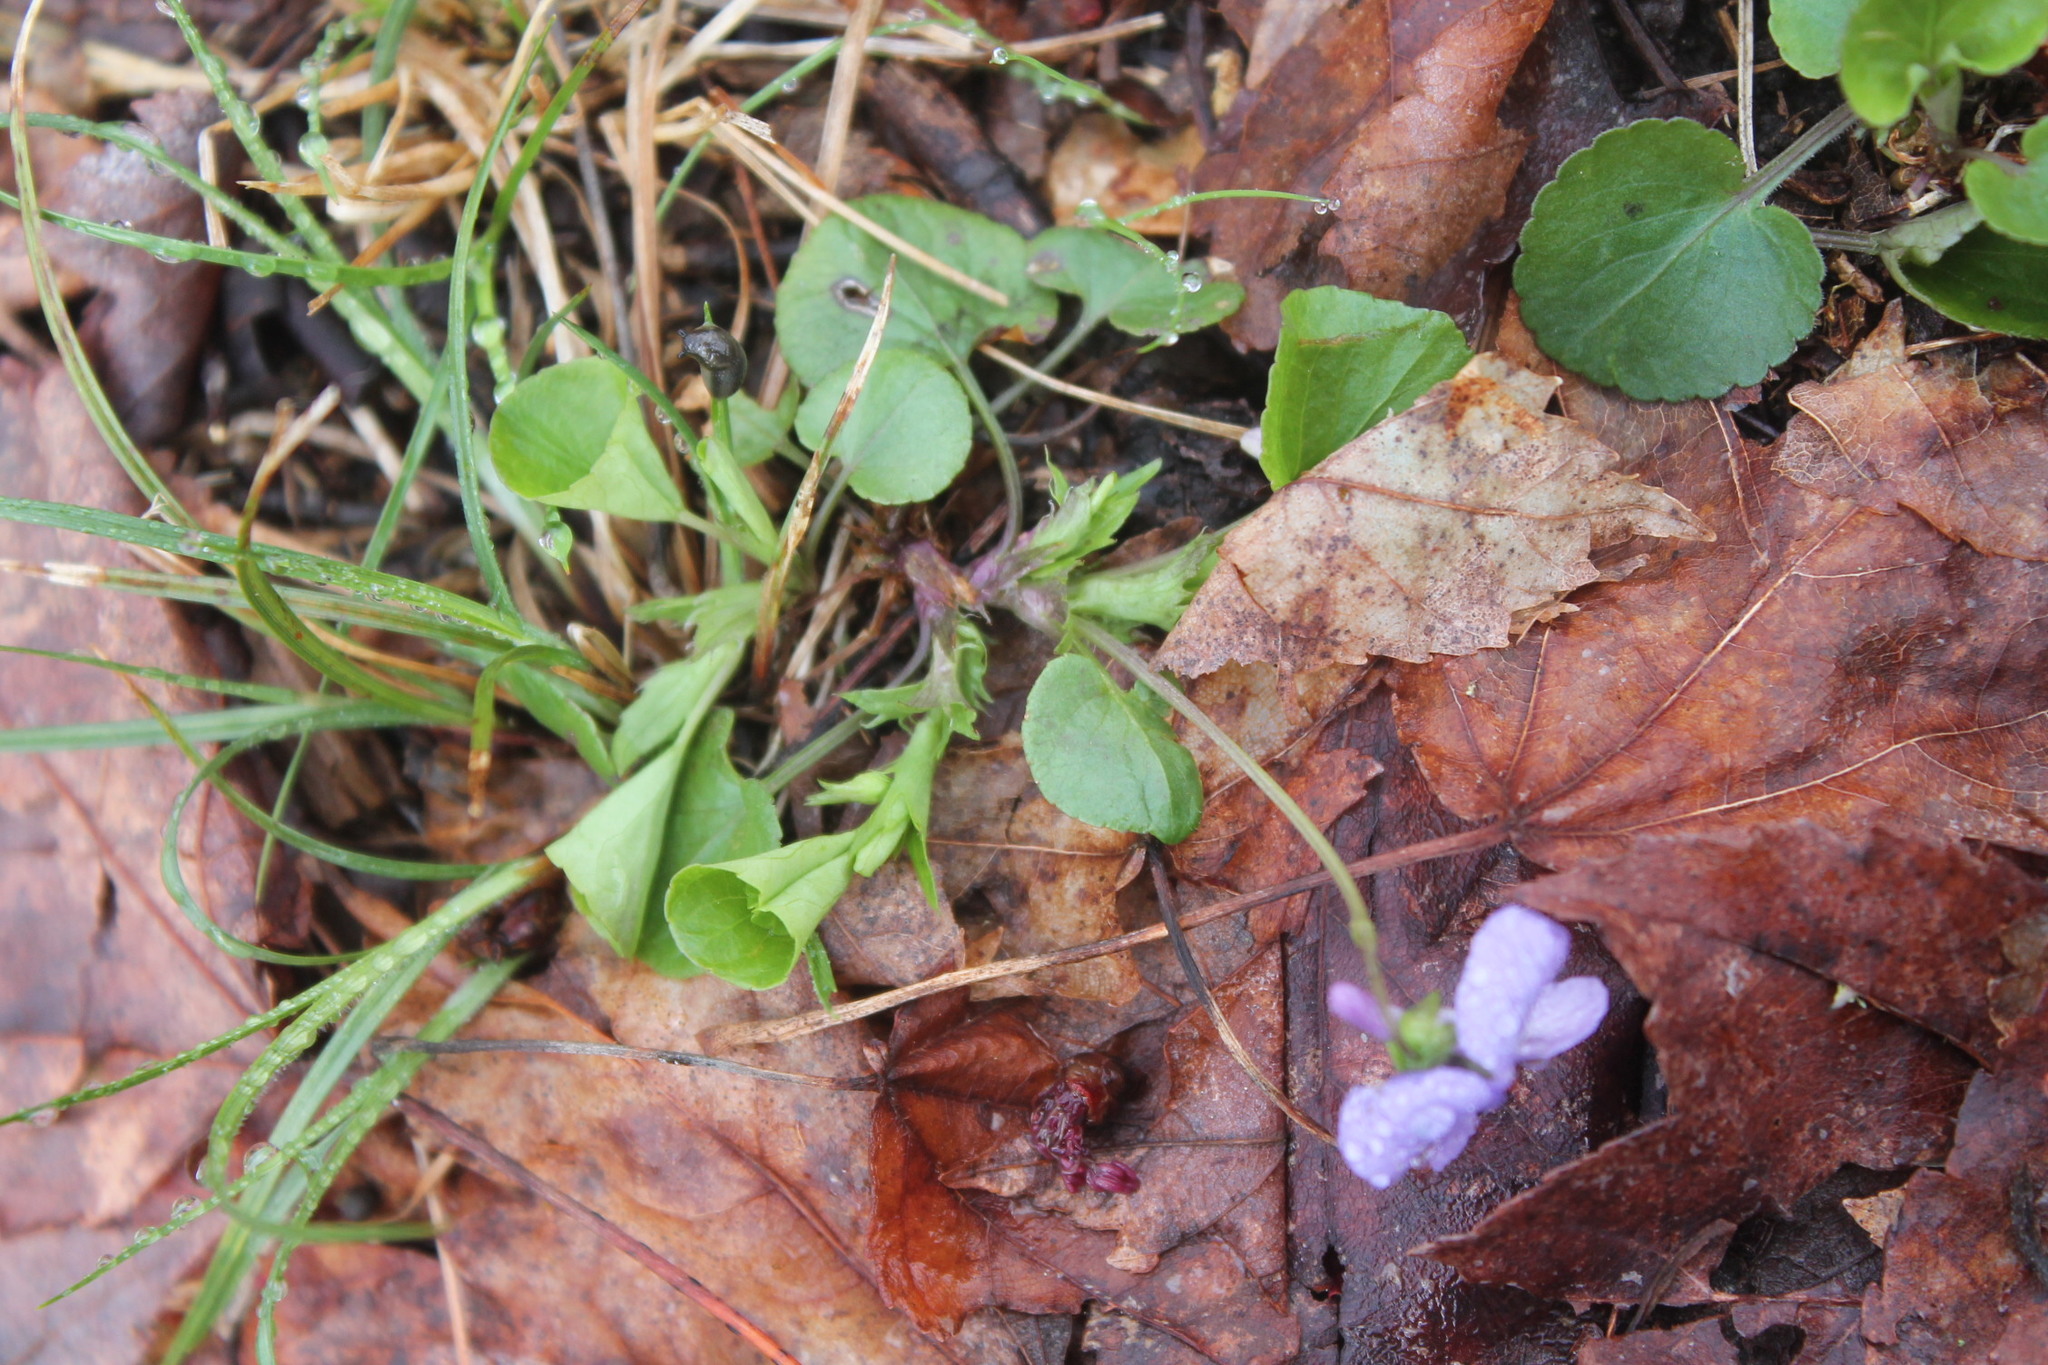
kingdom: Plantae
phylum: Tracheophyta
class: Magnoliopsida
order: Malpighiales
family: Violaceae
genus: Viola
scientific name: Viola labradorica
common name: Labrador violet
